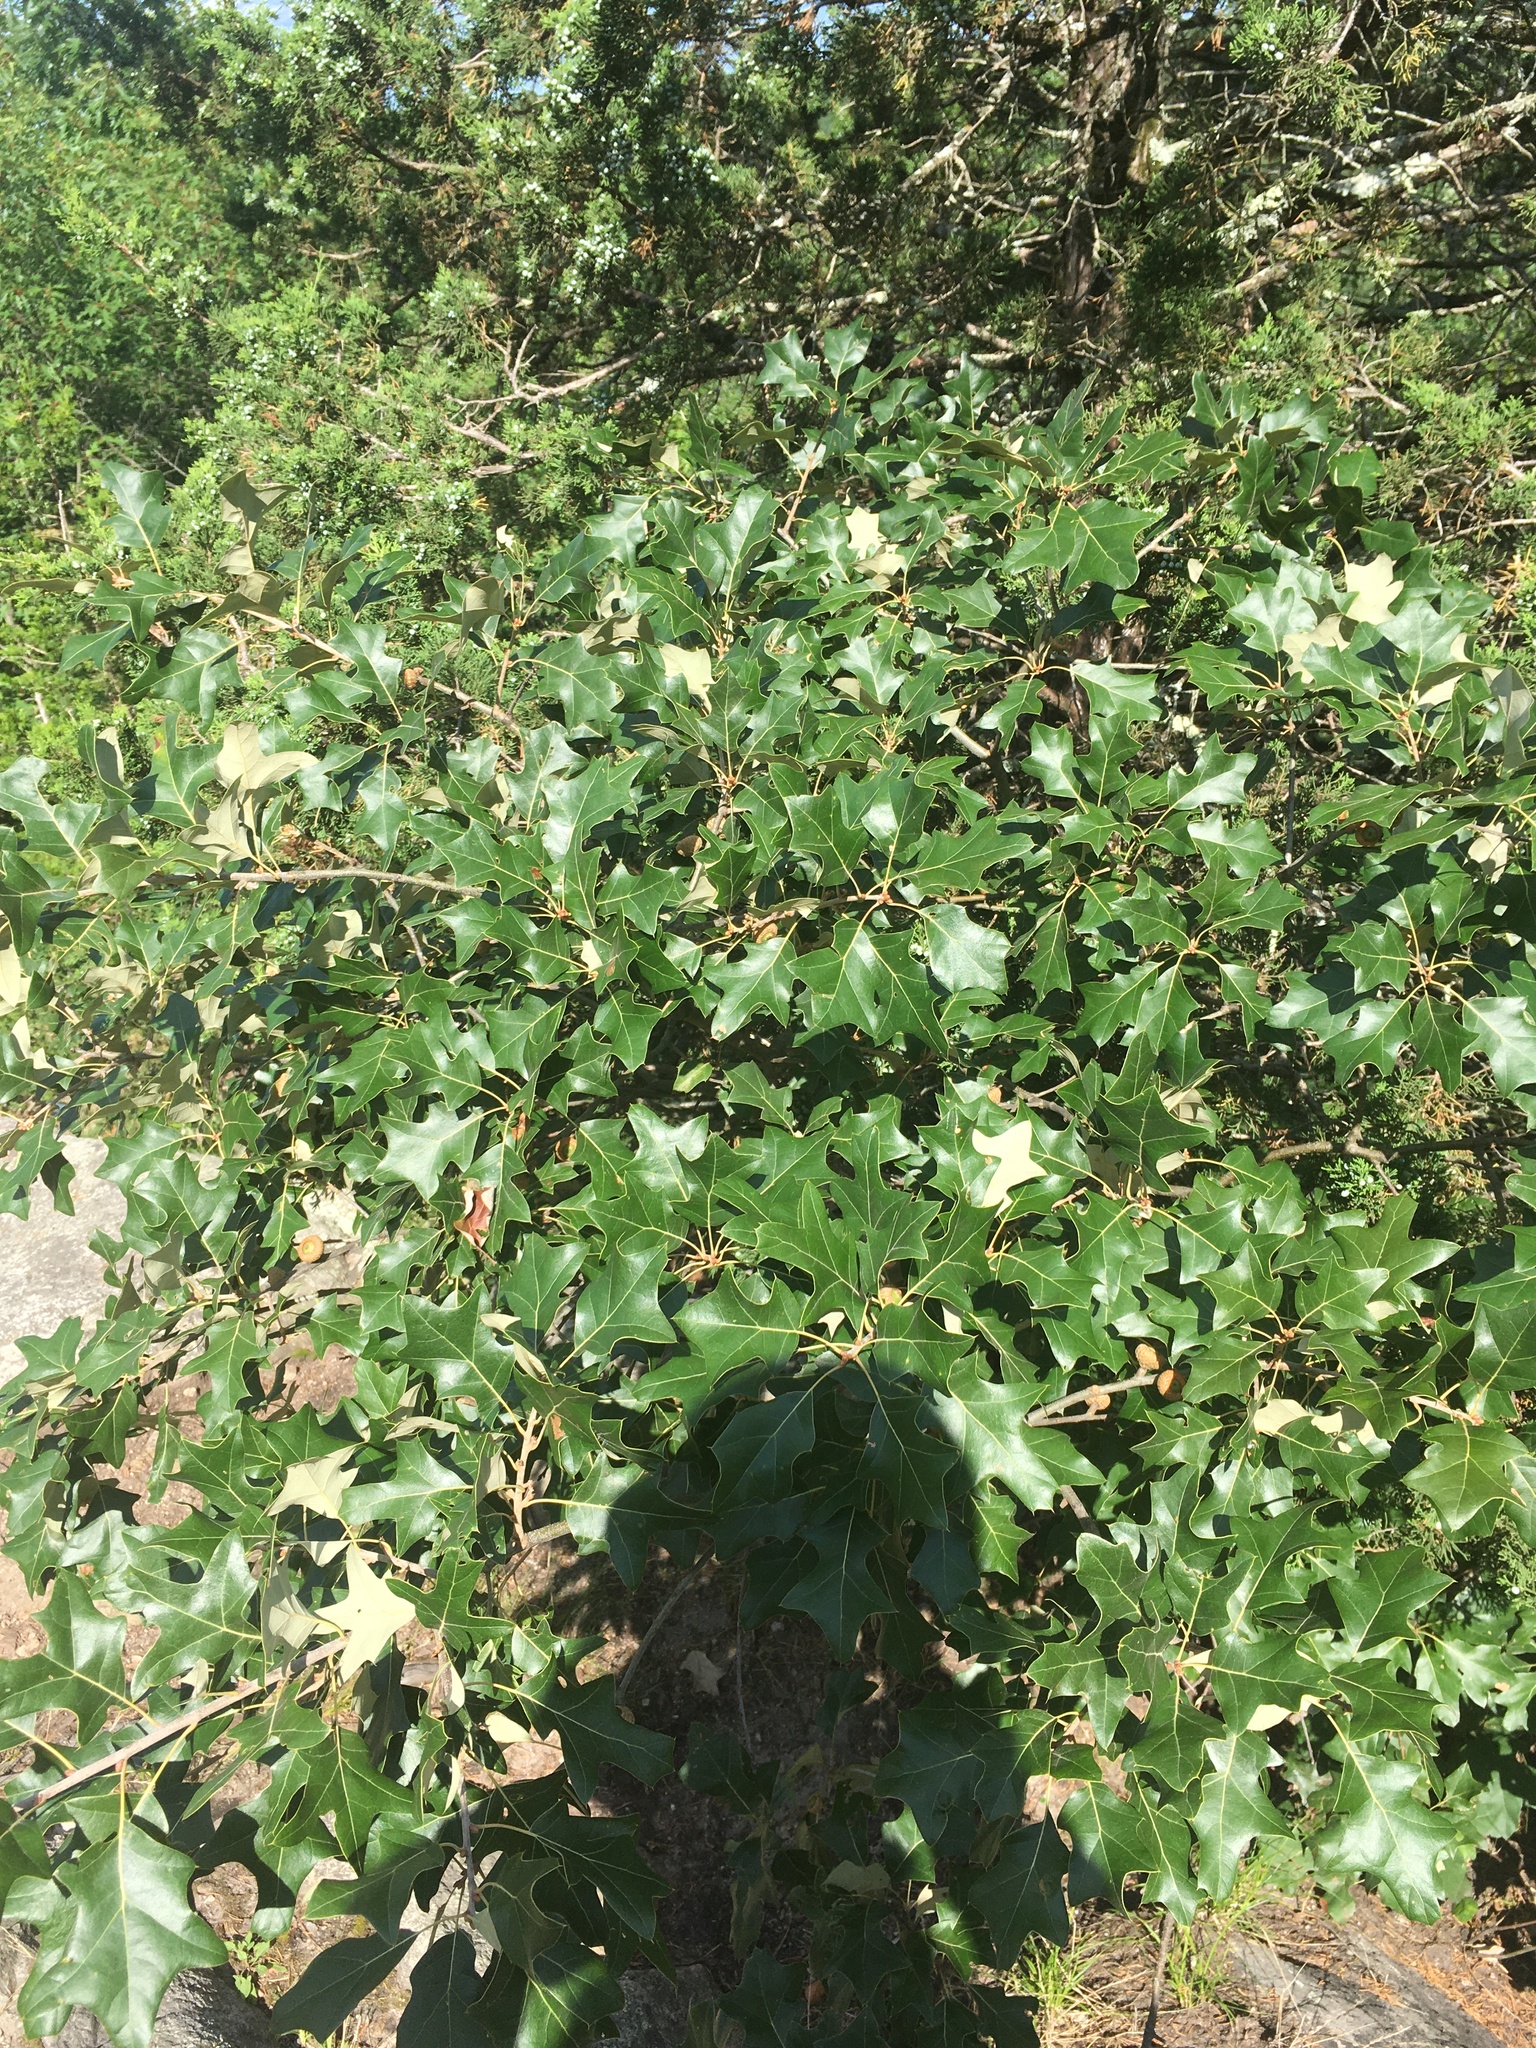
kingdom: Plantae
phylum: Tracheophyta
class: Magnoliopsida
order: Fagales
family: Fagaceae
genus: Quercus
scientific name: Quercus ilicifolia
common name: Bear oak
